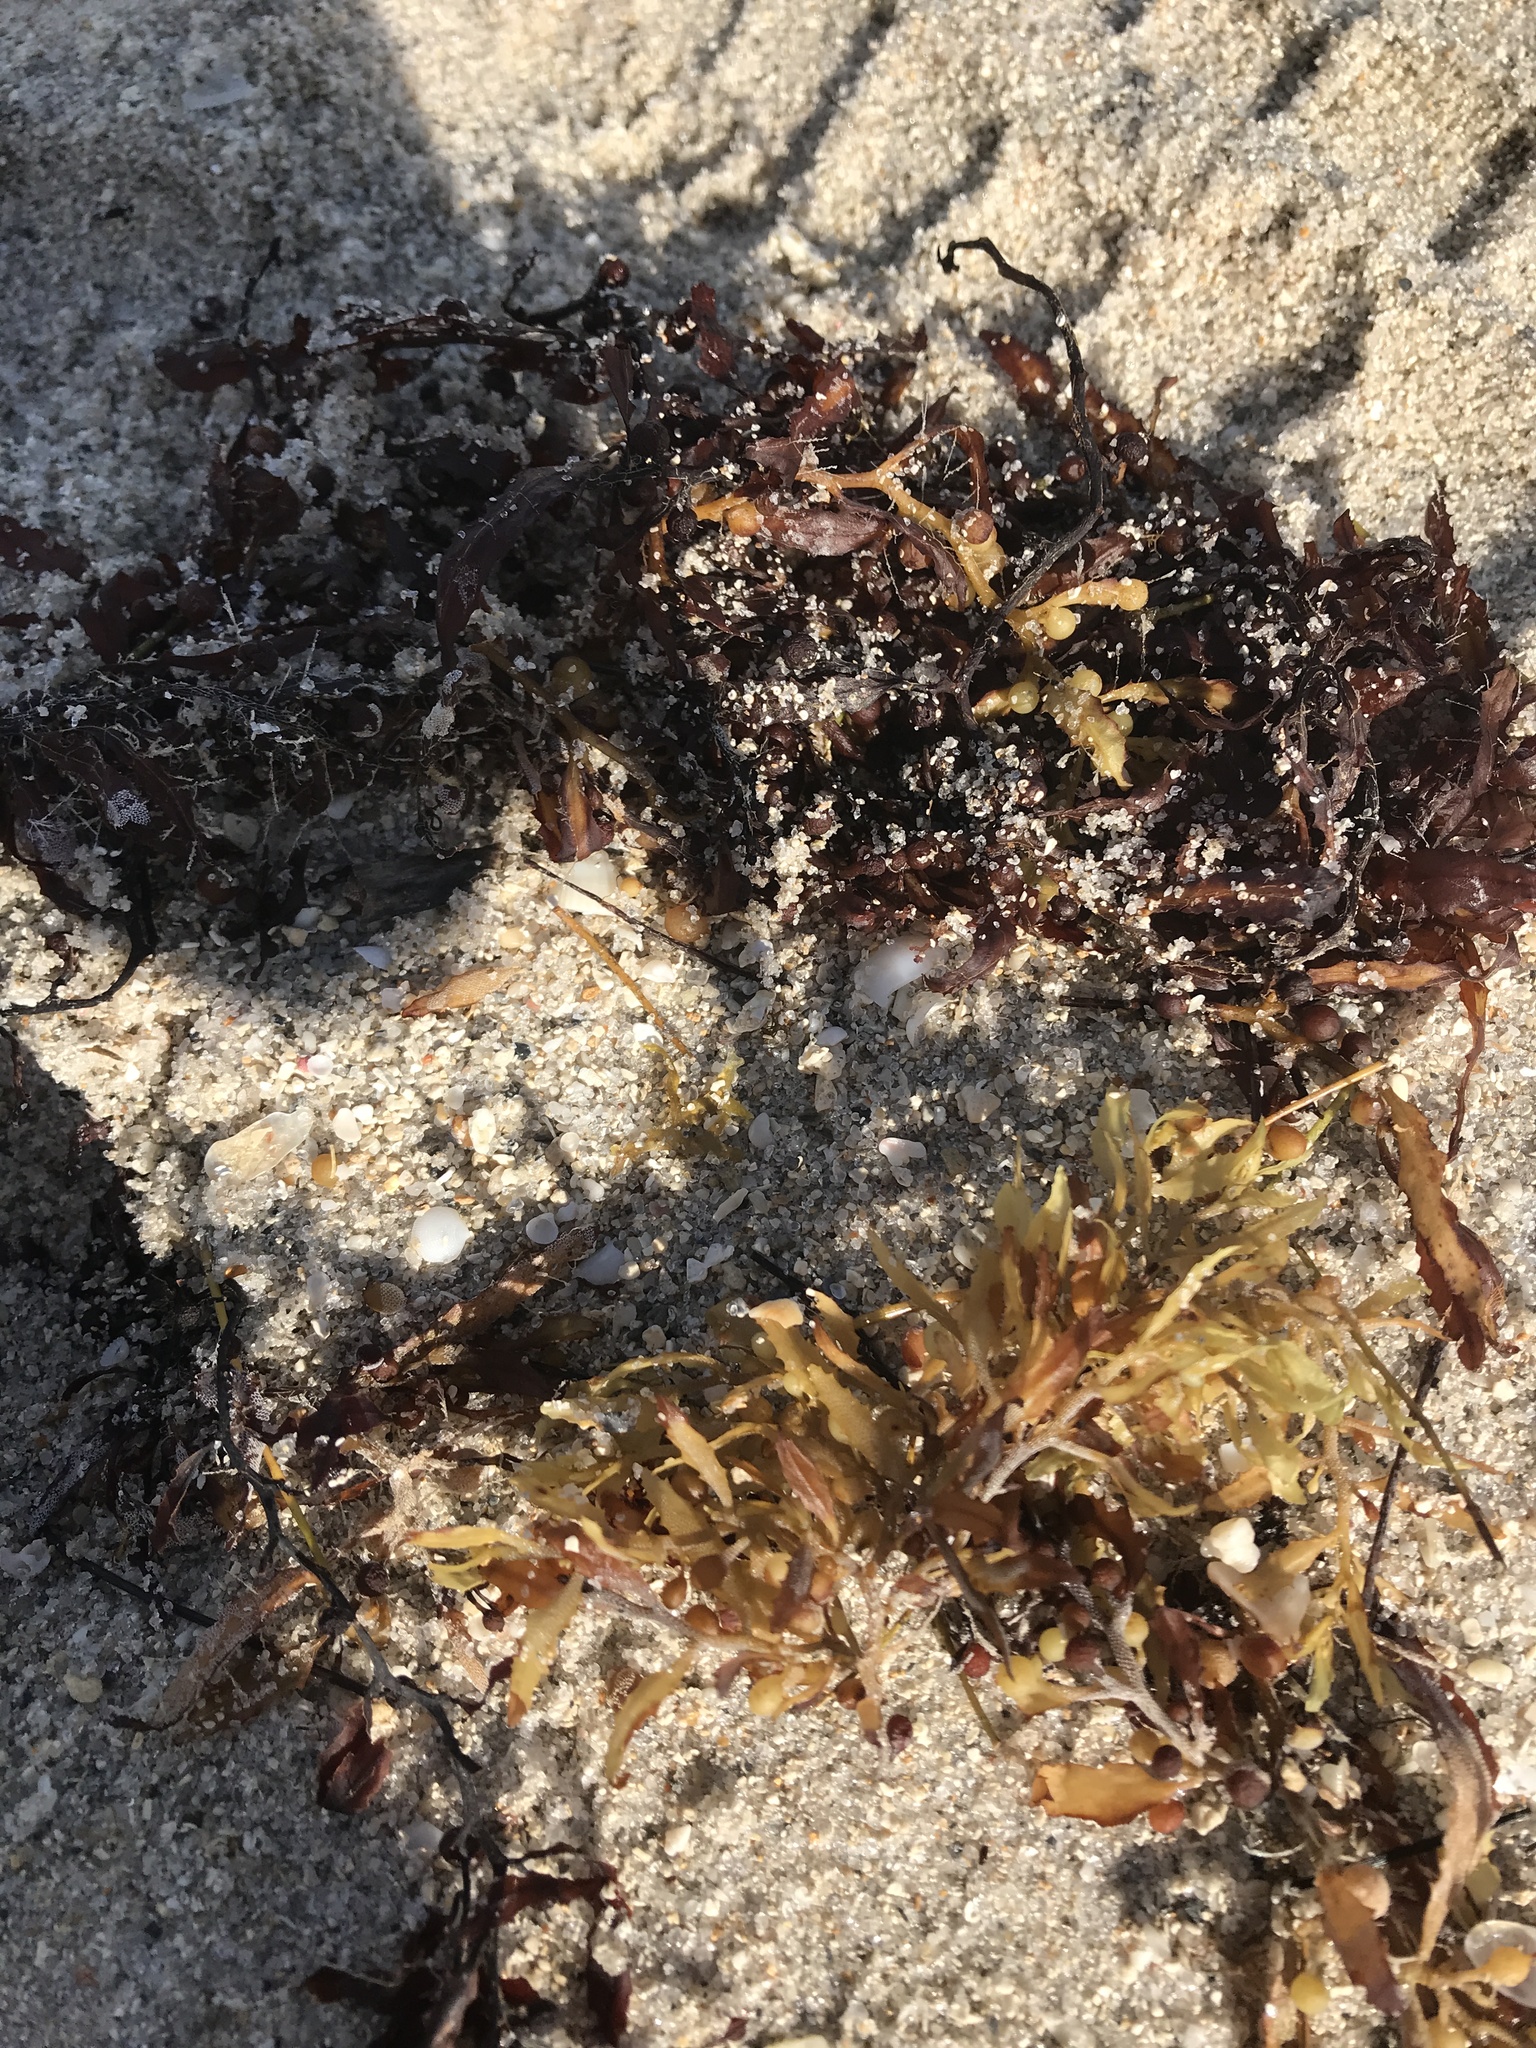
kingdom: Chromista
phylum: Ochrophyta
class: Phaeophyceae
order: Fucales
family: Sargassaceae
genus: Sargassum
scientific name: Sargassum fluitans
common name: Sargassum seaweed
